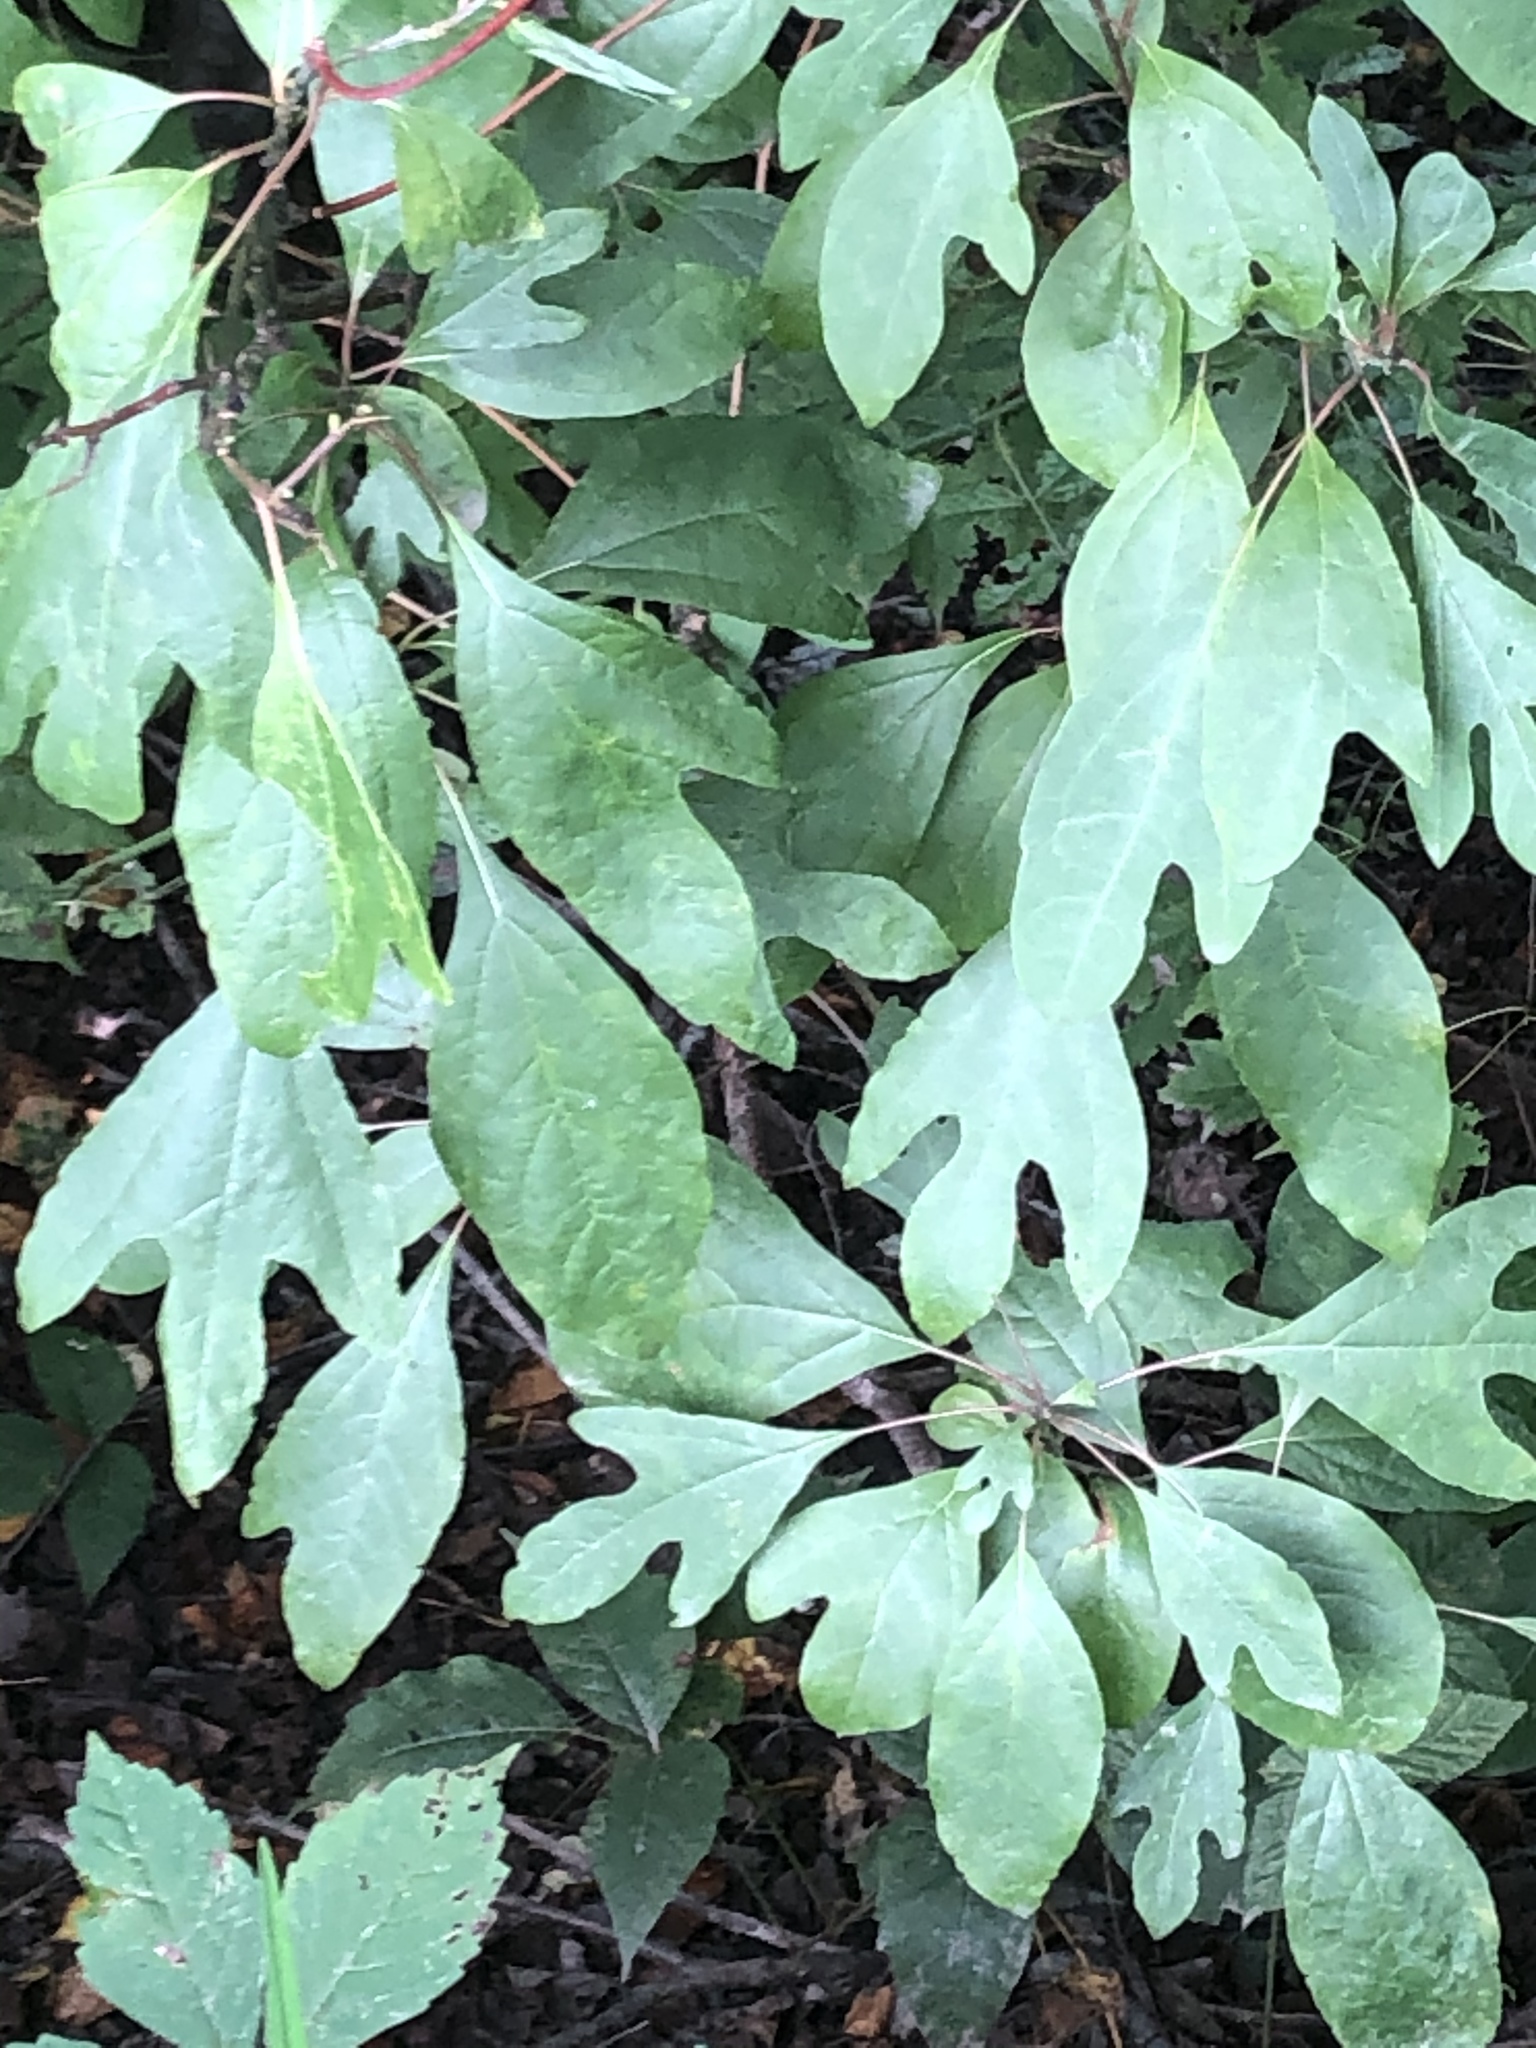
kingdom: Plantae
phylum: Tracheophyta
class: Magnoliopsida
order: Laurales
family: Lauraceae
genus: Sassafras
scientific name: Sassafras albidum
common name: Sassafras
